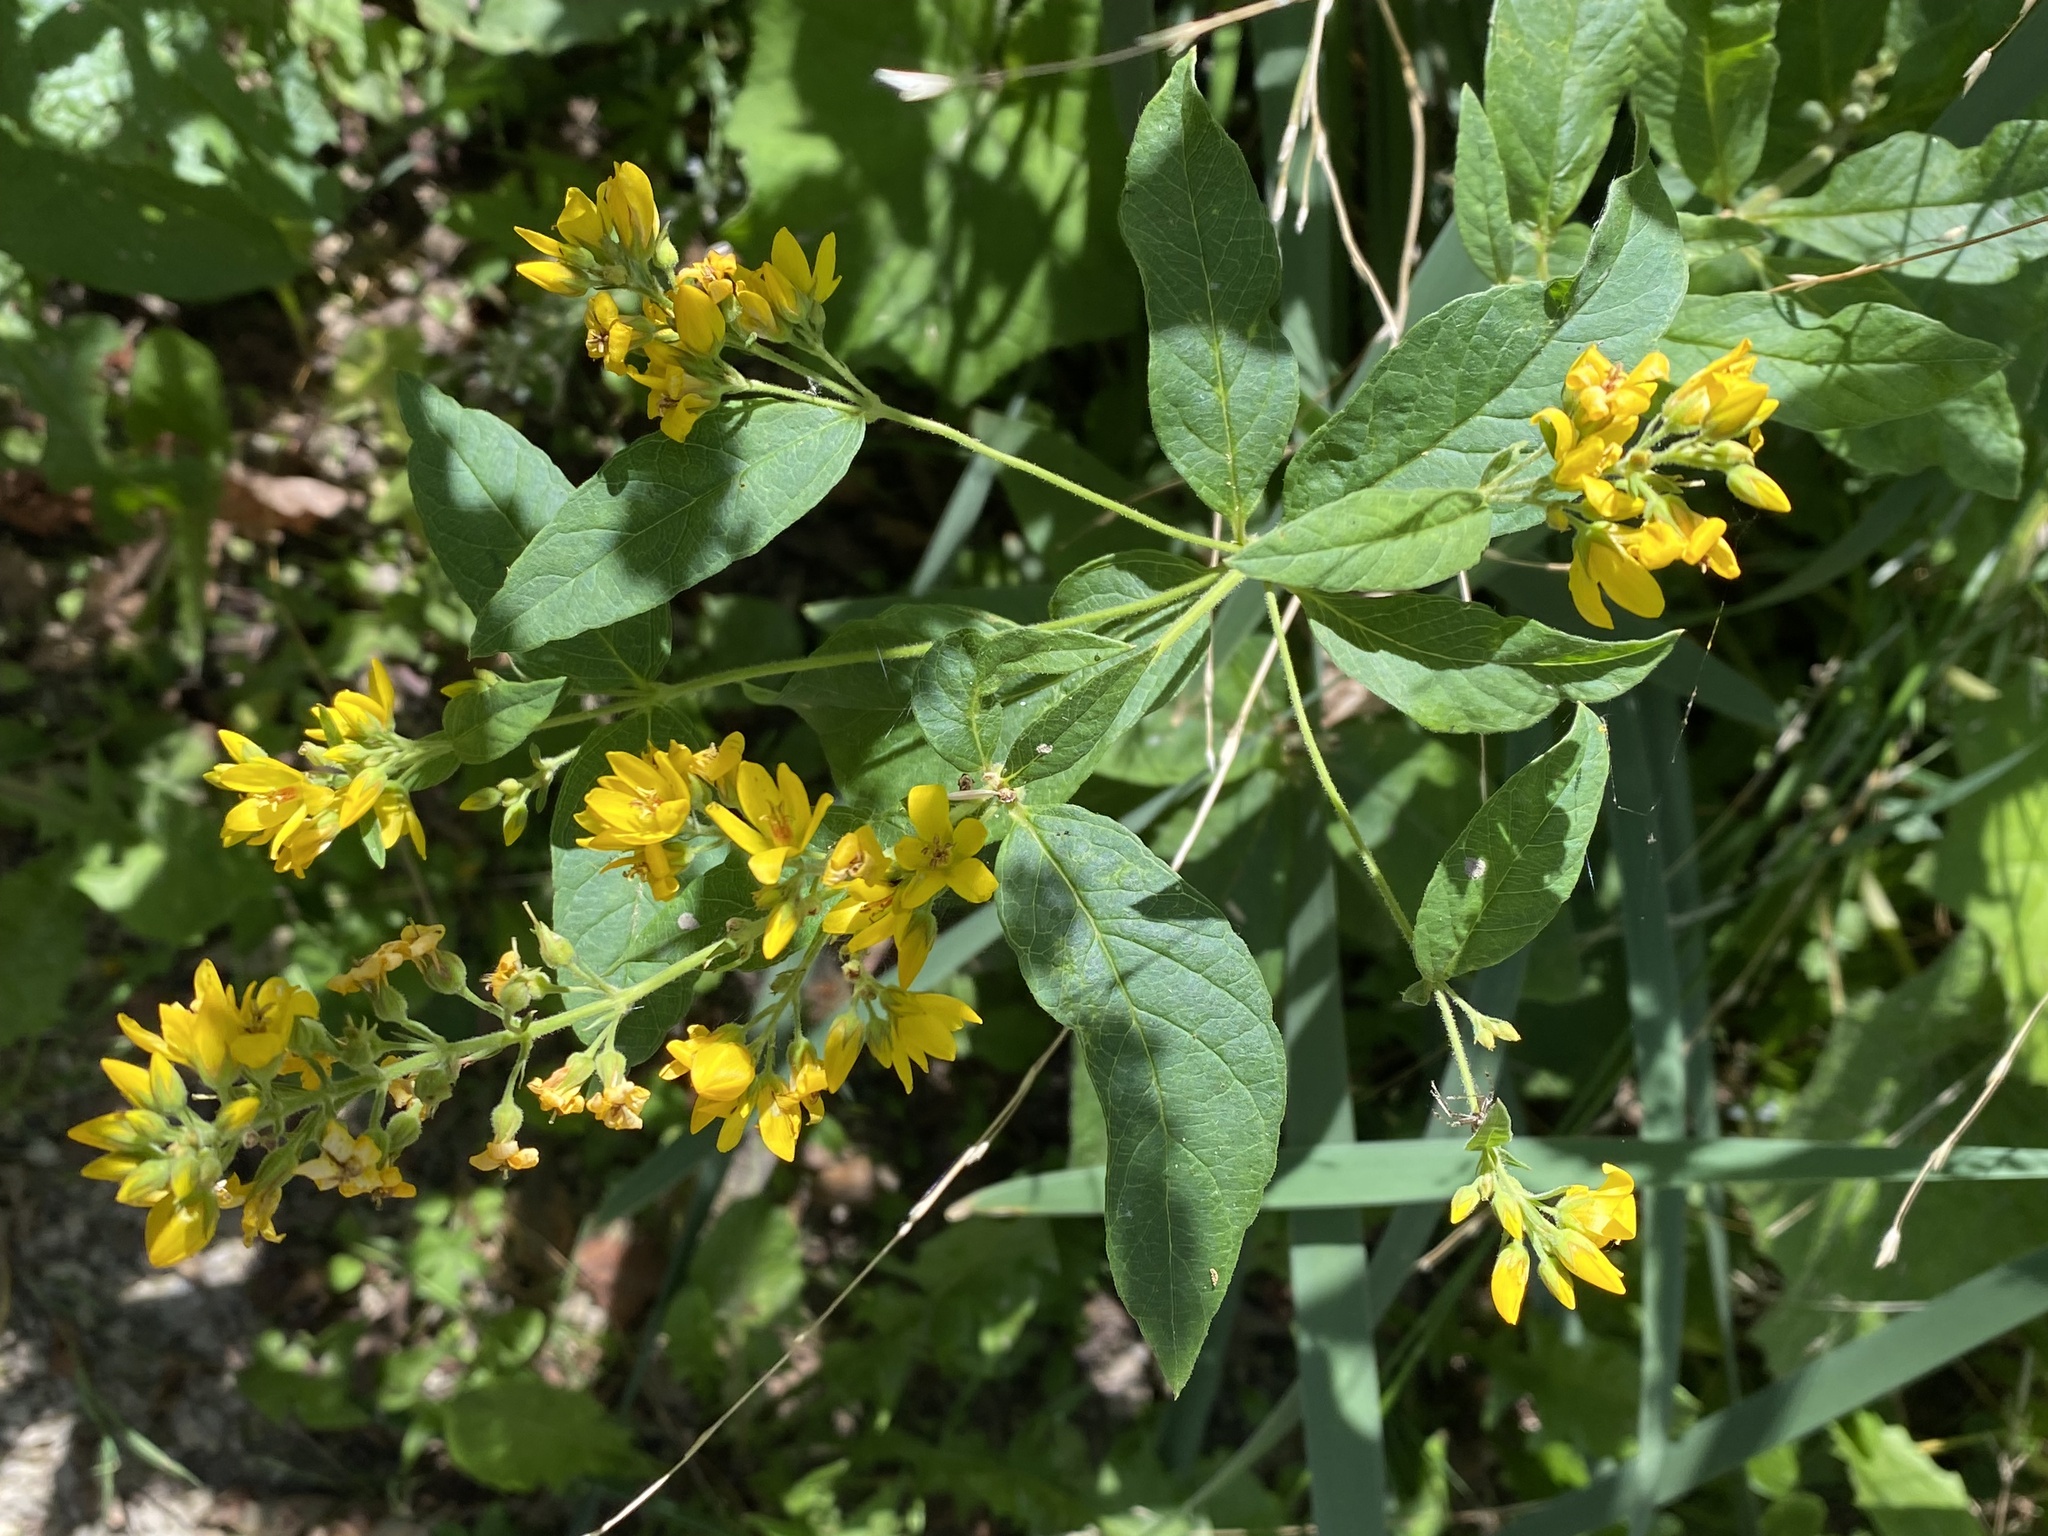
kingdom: Plantae
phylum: Tracheophyta
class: Magnoliopsida
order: Ericales
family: Primulaceae
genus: Lysimachia
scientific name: Lysimachia vulgaris
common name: Yellow loosestrife
